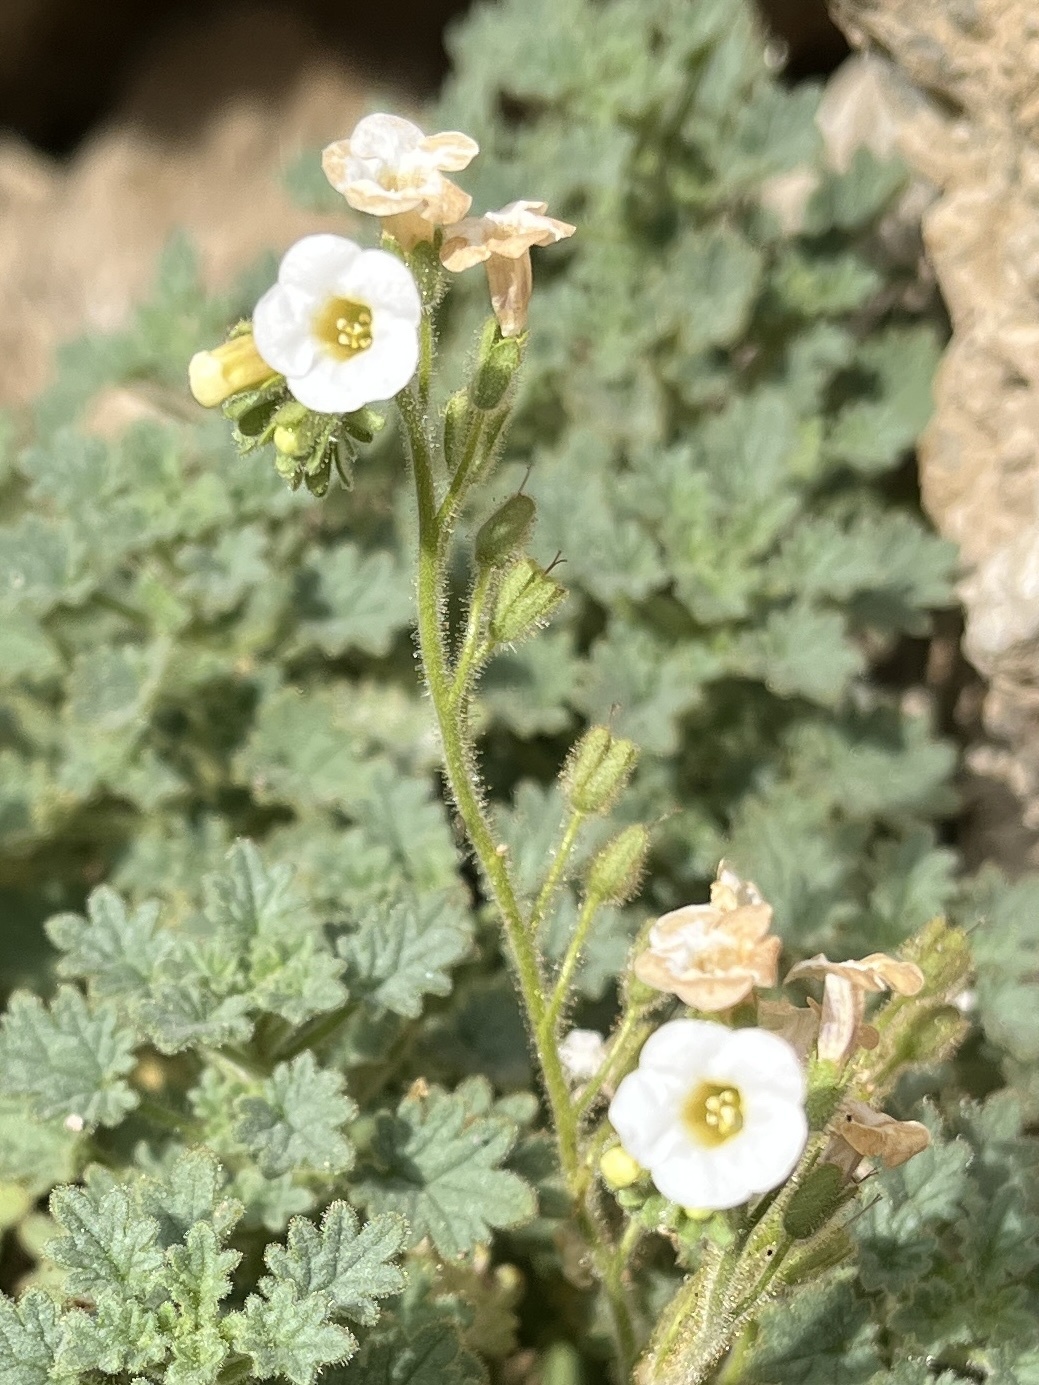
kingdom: Plantae
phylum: Tracheophyta
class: Magnoliopsida
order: Boraginales
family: Hydrophyllaceae
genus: Phacelia
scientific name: Phacelia perityloides
